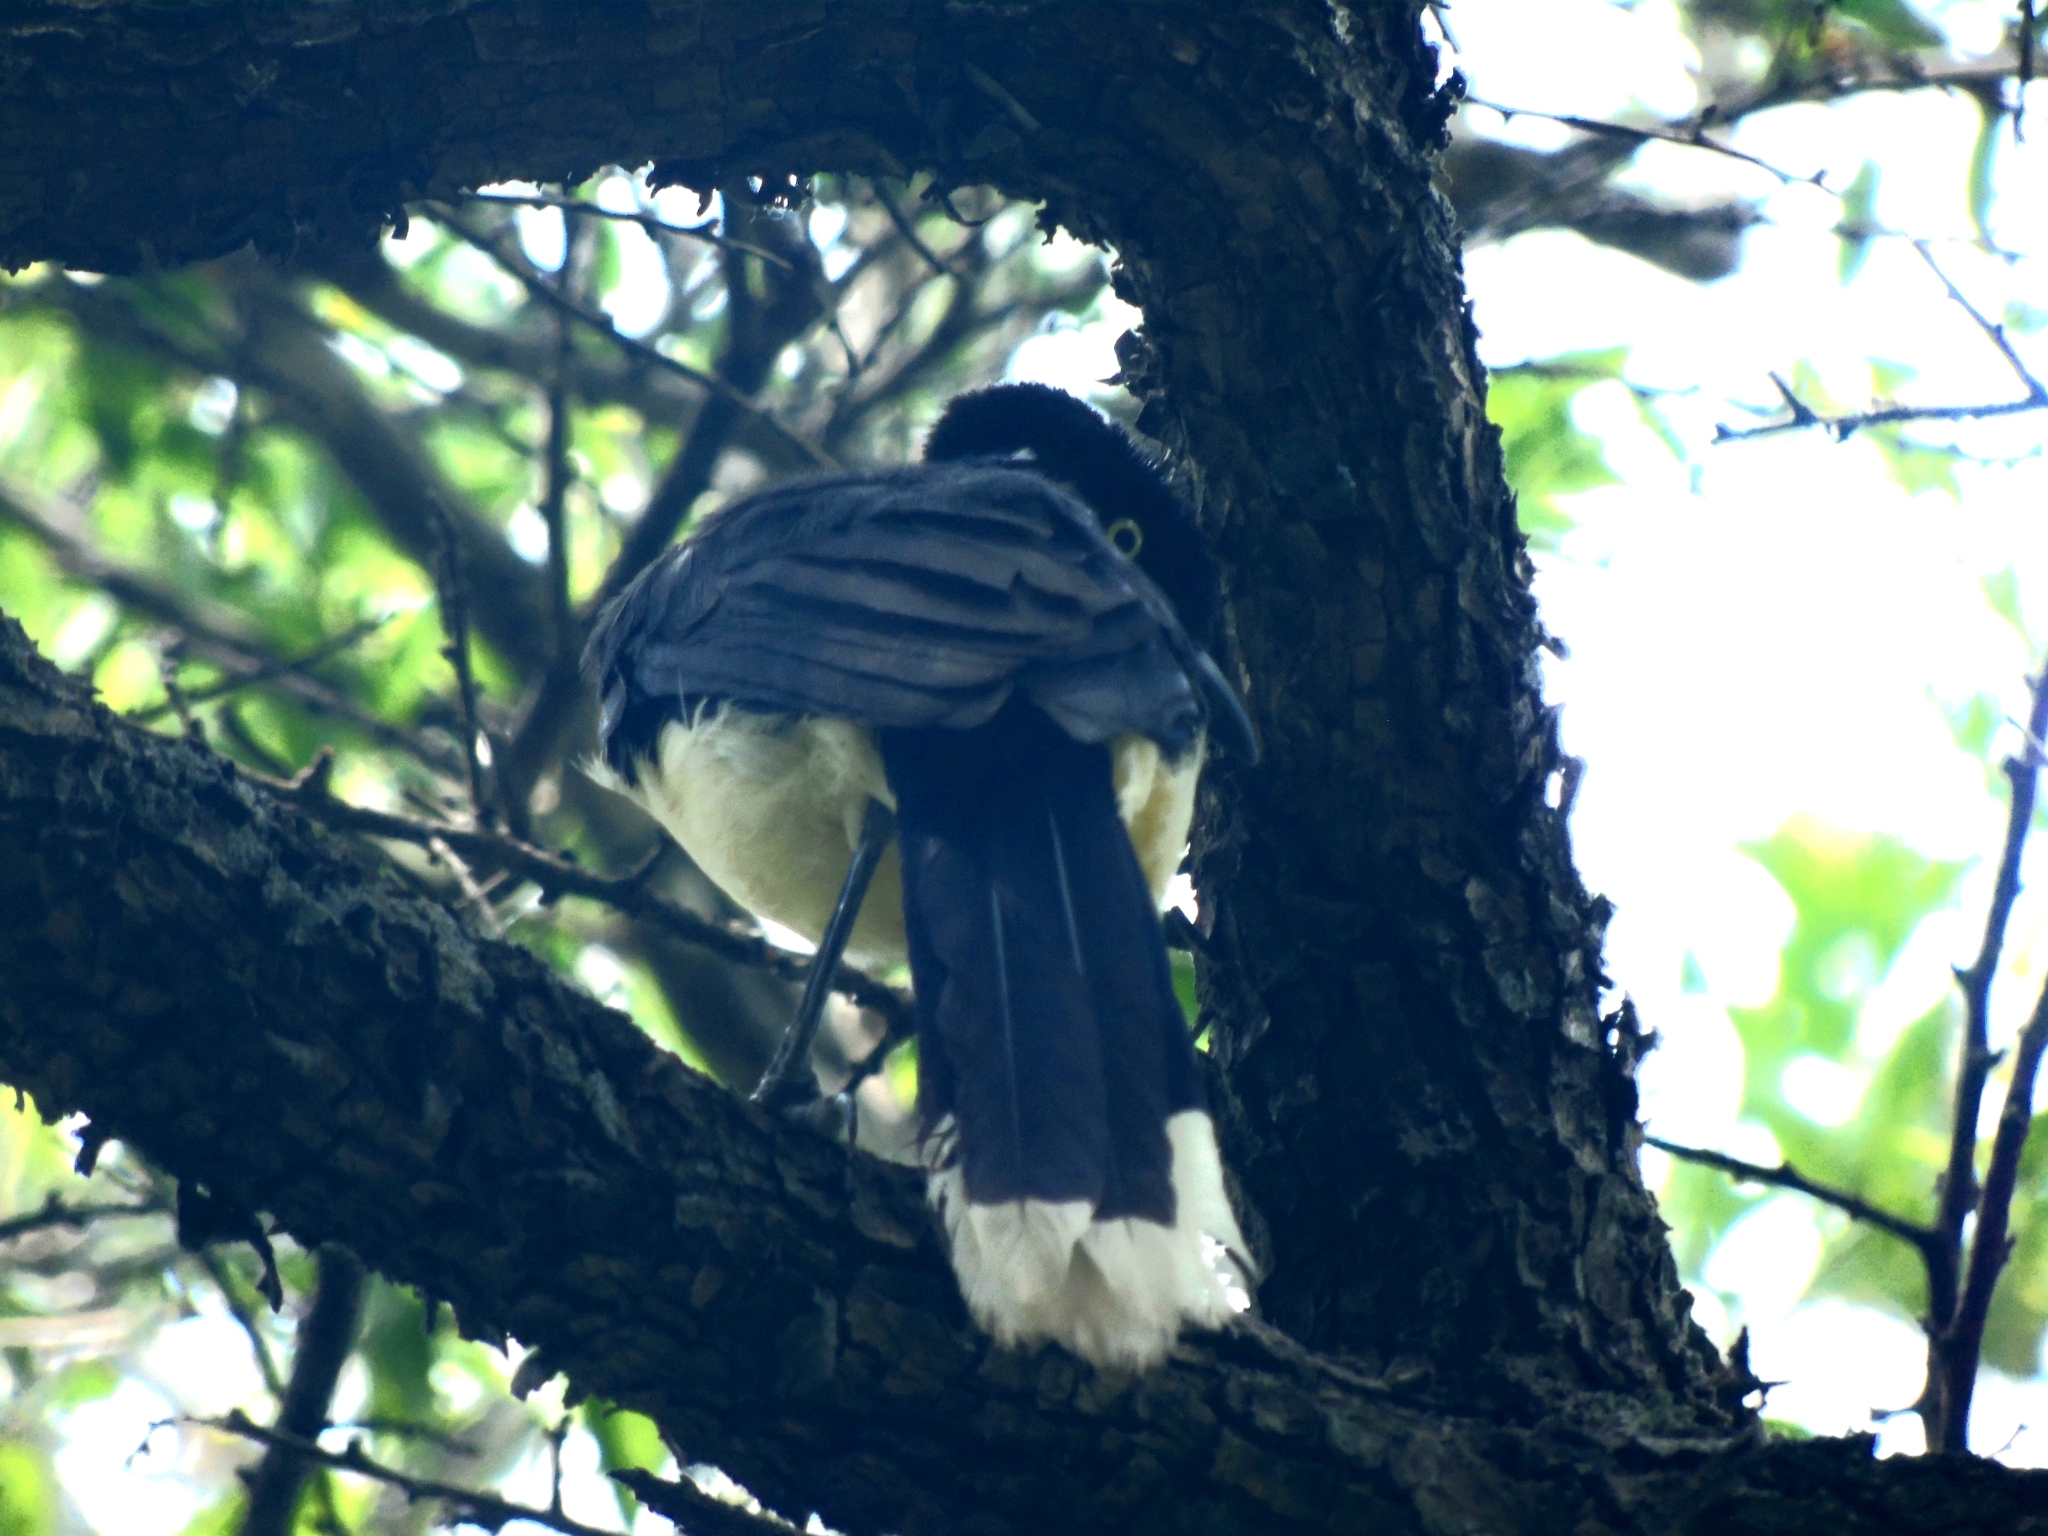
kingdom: Animalia
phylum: Chordata
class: Aves
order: Passeriformes
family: Corvidae
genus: Cyanocorax
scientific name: Cyanocorax chrysops
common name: Plush-crested jay
